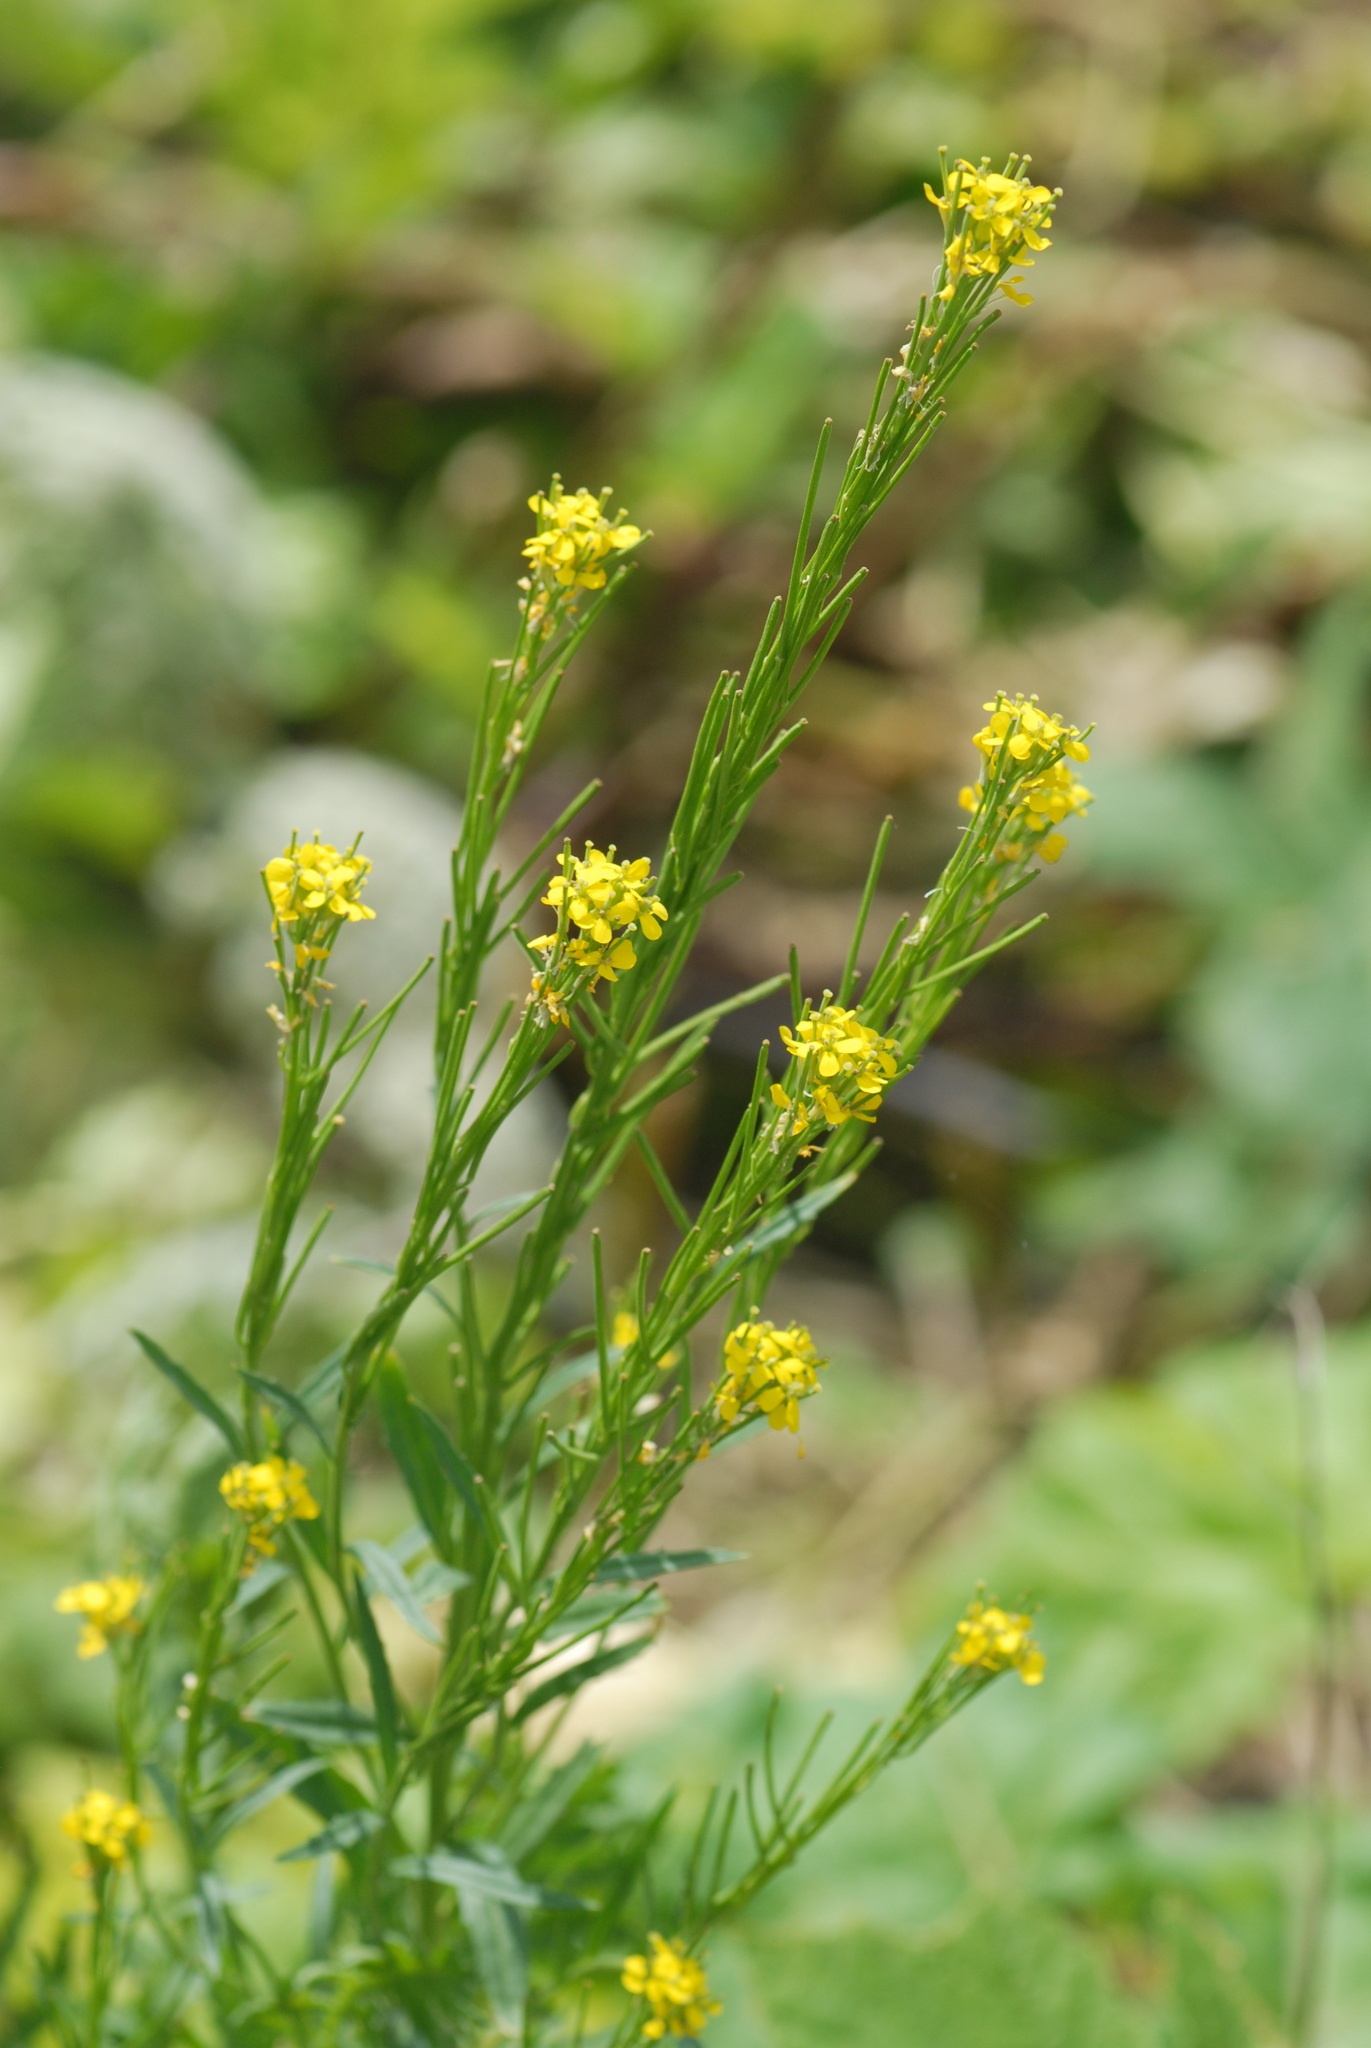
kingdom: Plantae
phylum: Tracheophyta
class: Magnoliopsida
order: Brassicales
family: Brassicaceae
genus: Erysimum
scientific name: Erysimum cheiranthoides
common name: Treacle mustard
